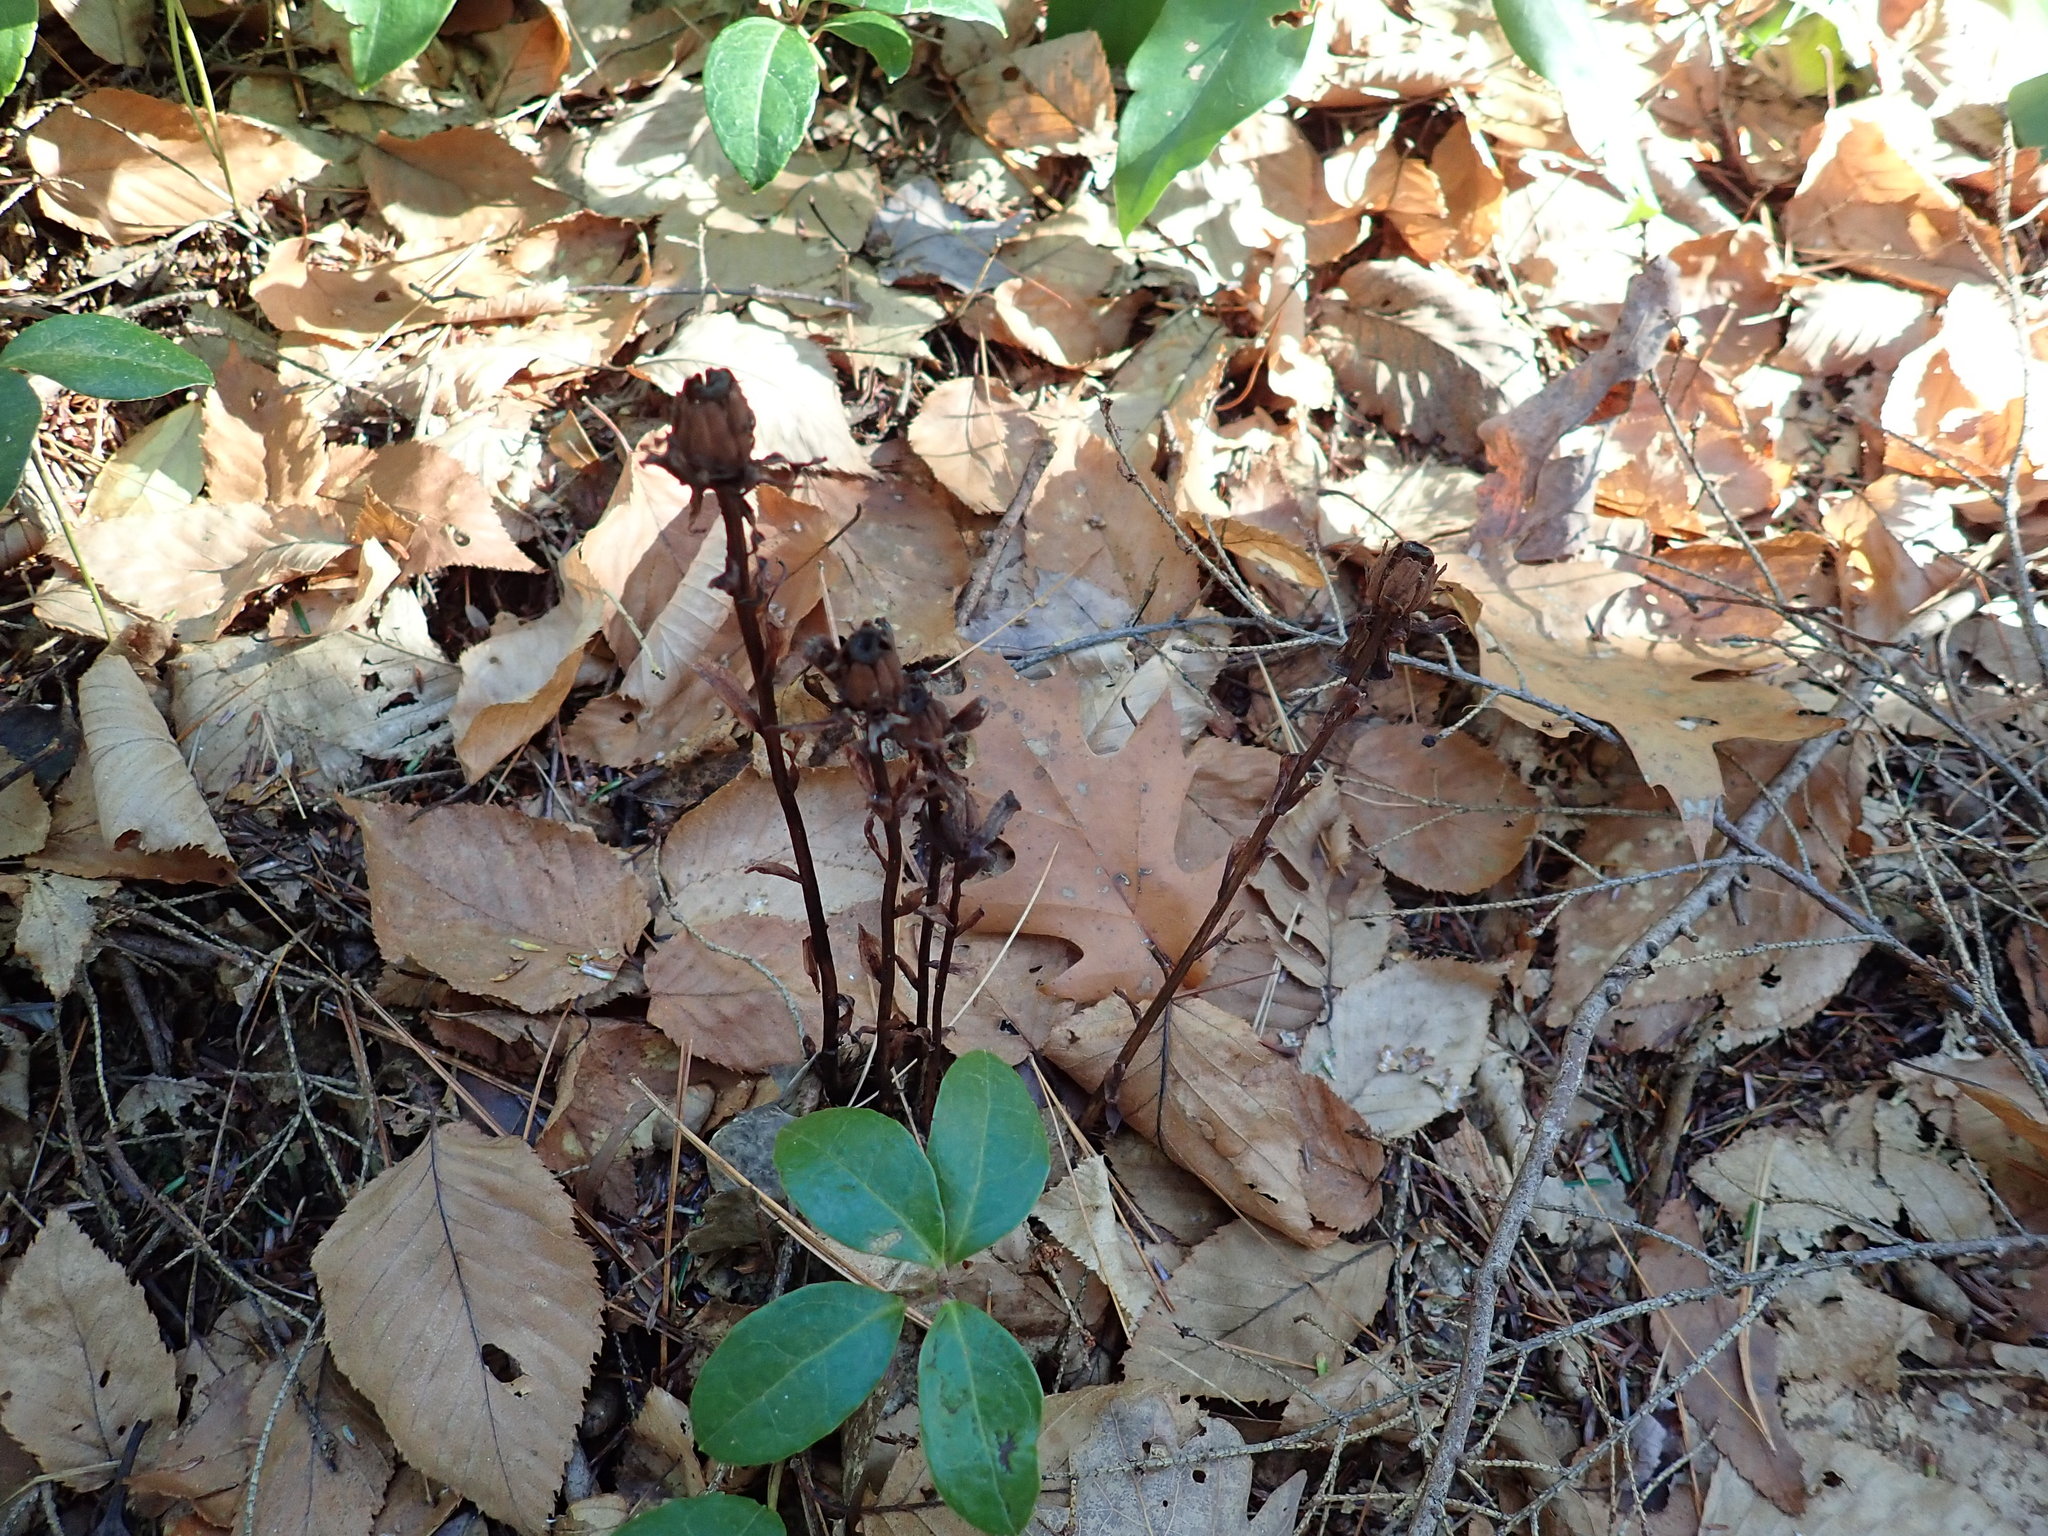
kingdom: Plantae
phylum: Tracheophyta
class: Magnoliopsida
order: Ericales
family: Ericaceae
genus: Monotropa
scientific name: Monotropa uniflora
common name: Convulsion root
